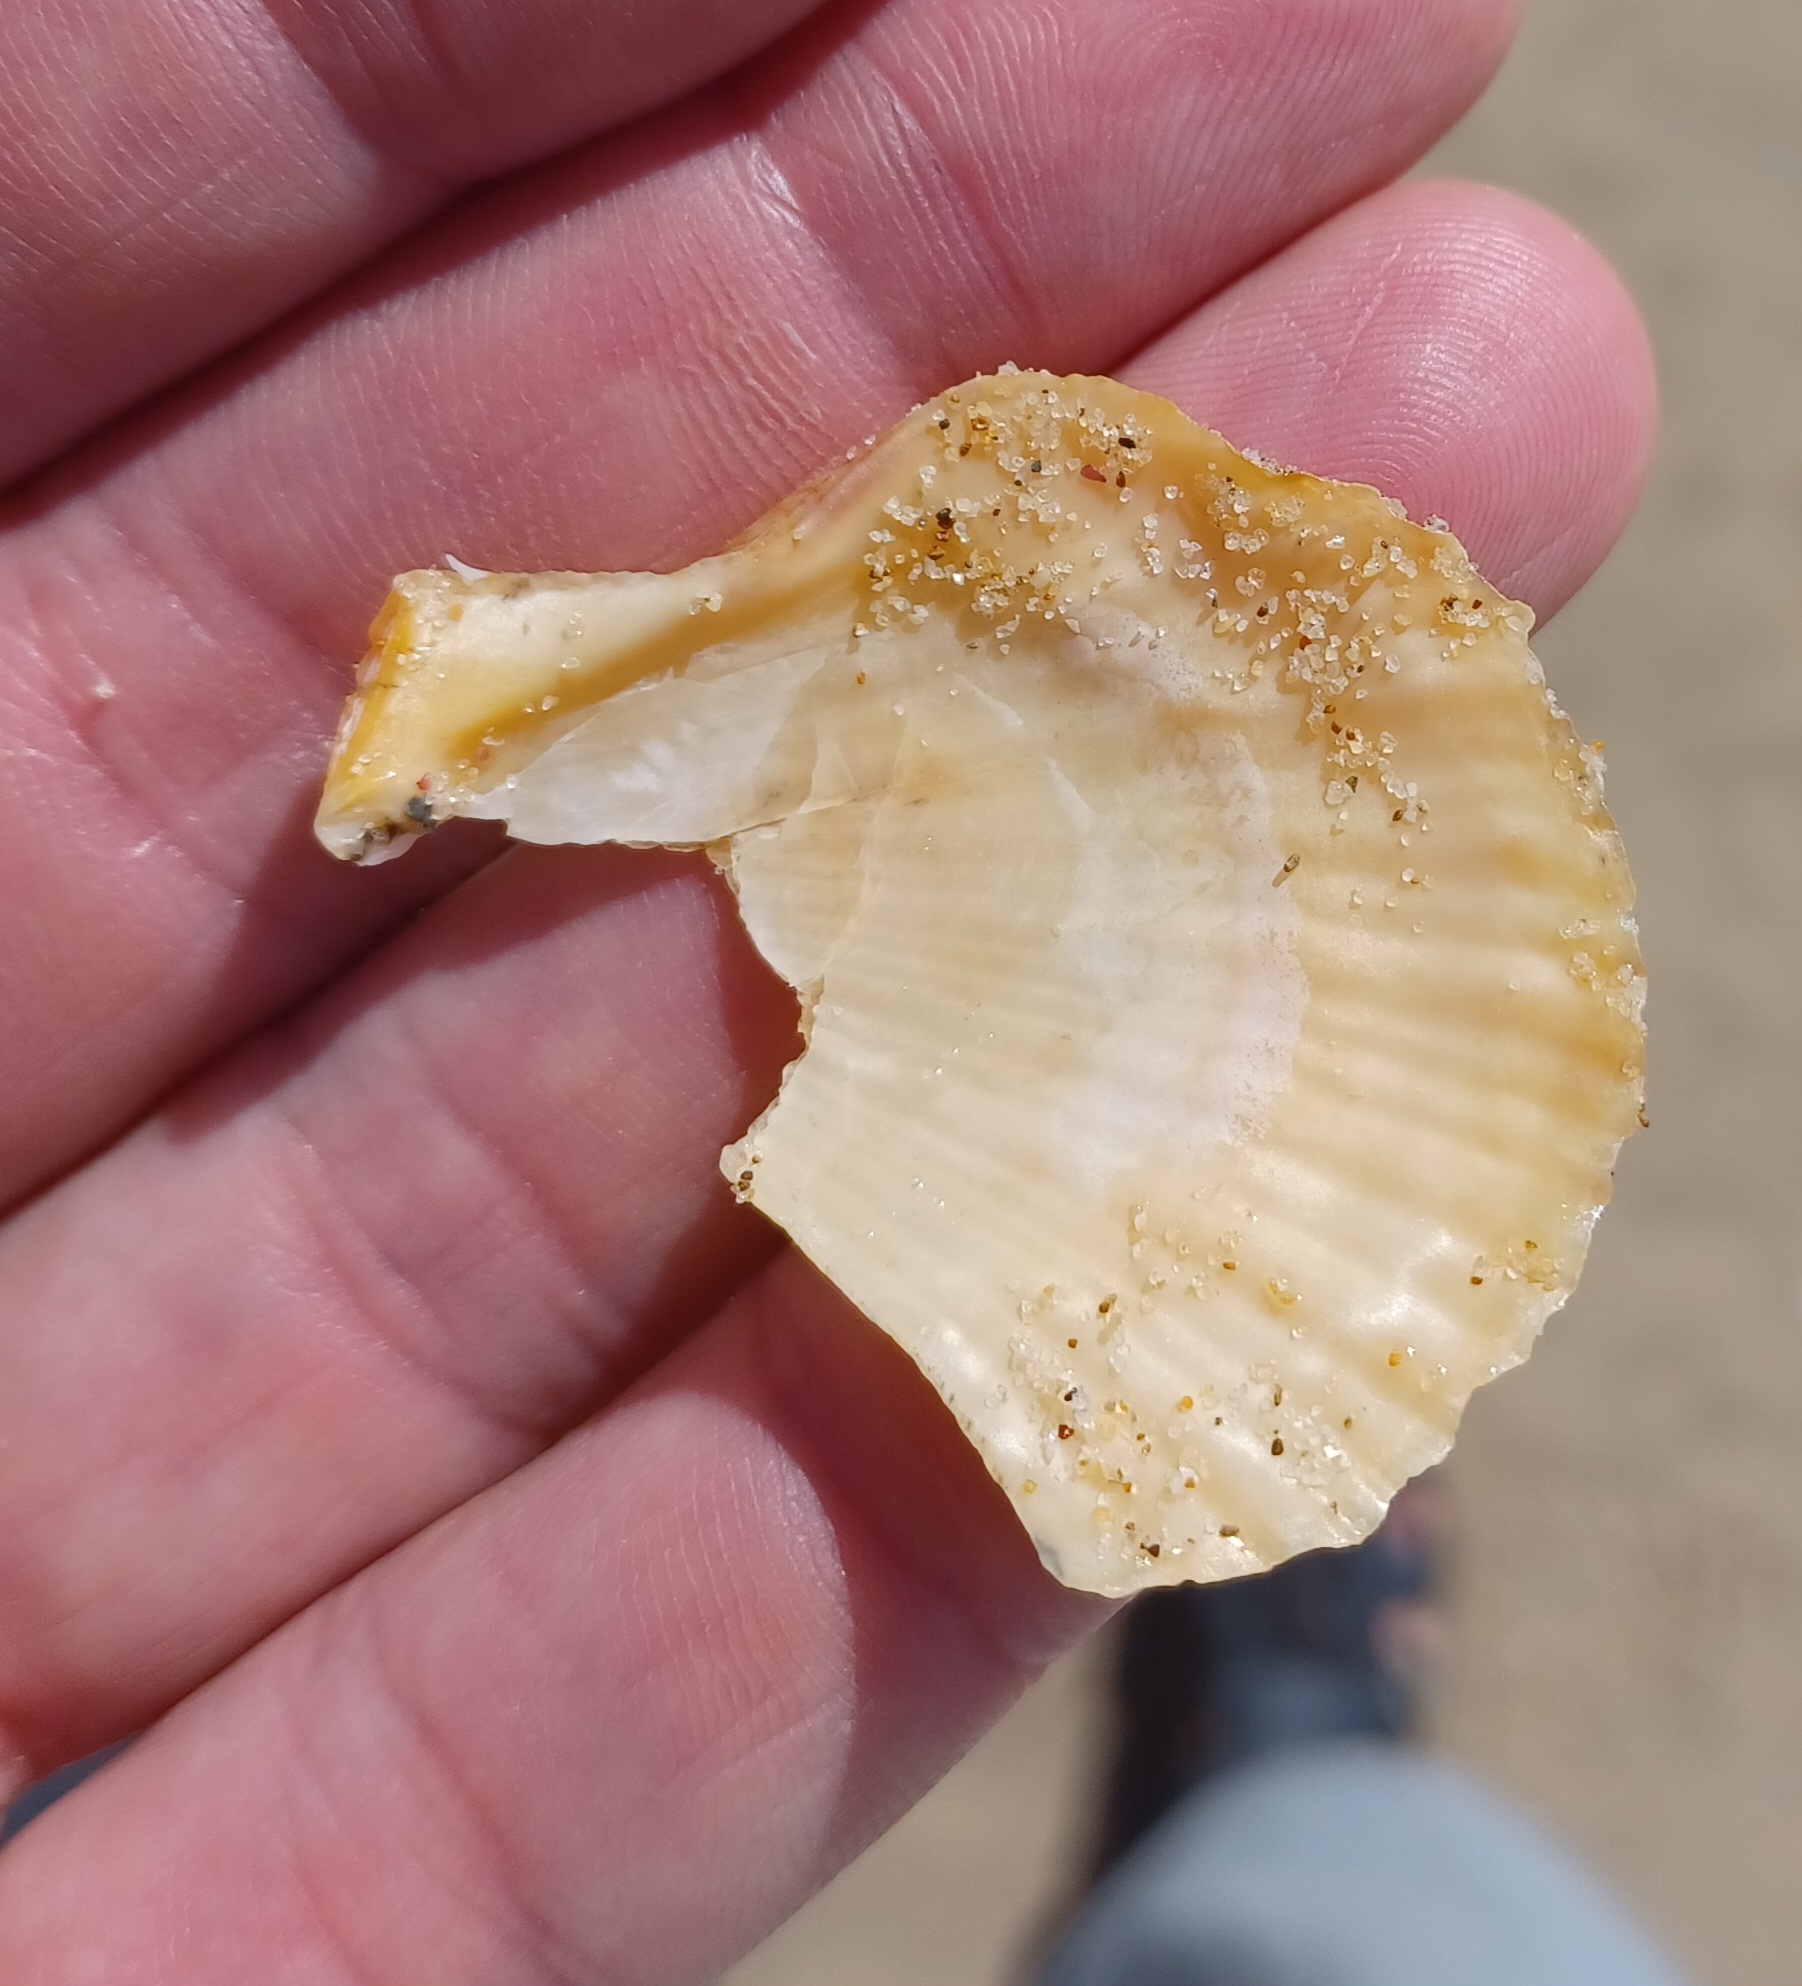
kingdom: Animalia
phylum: Mollusca
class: Bivalvia
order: Pectinida
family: Pectinidae
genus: Scaeochlamys
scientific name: Scaeochlamys livida
